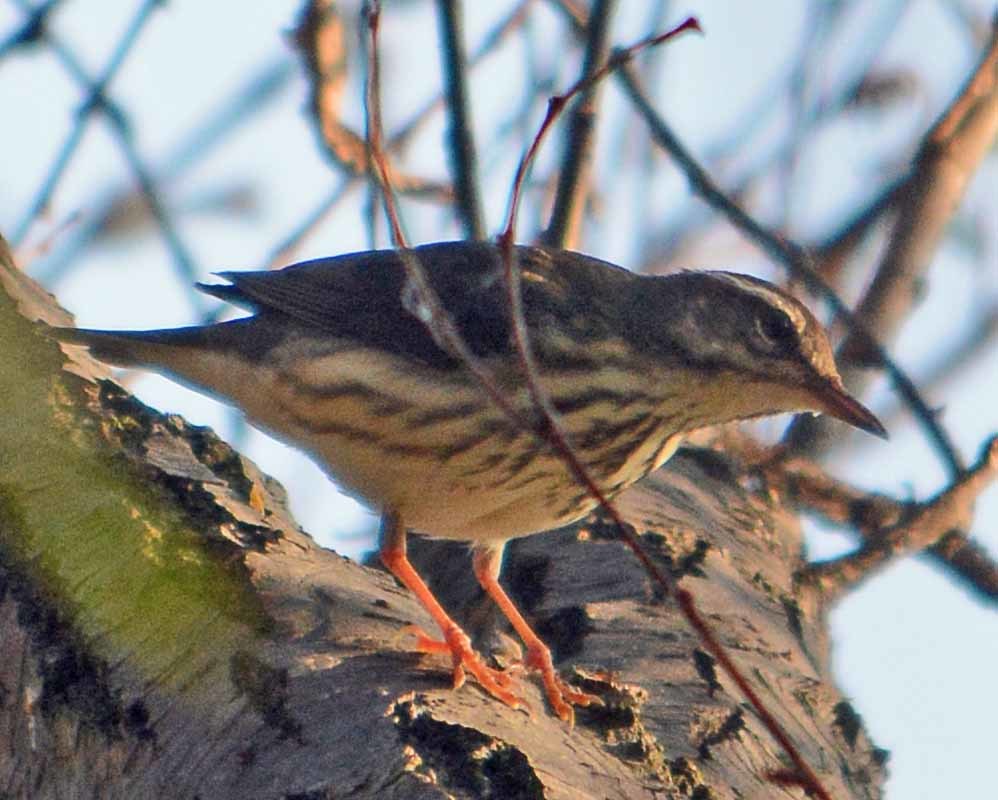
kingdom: Animalia
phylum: Chordata
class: Aves
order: Passeriformes
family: Parulidae
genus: Parkesia
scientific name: Parkesia motacilla
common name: Louisiana waterthrush
